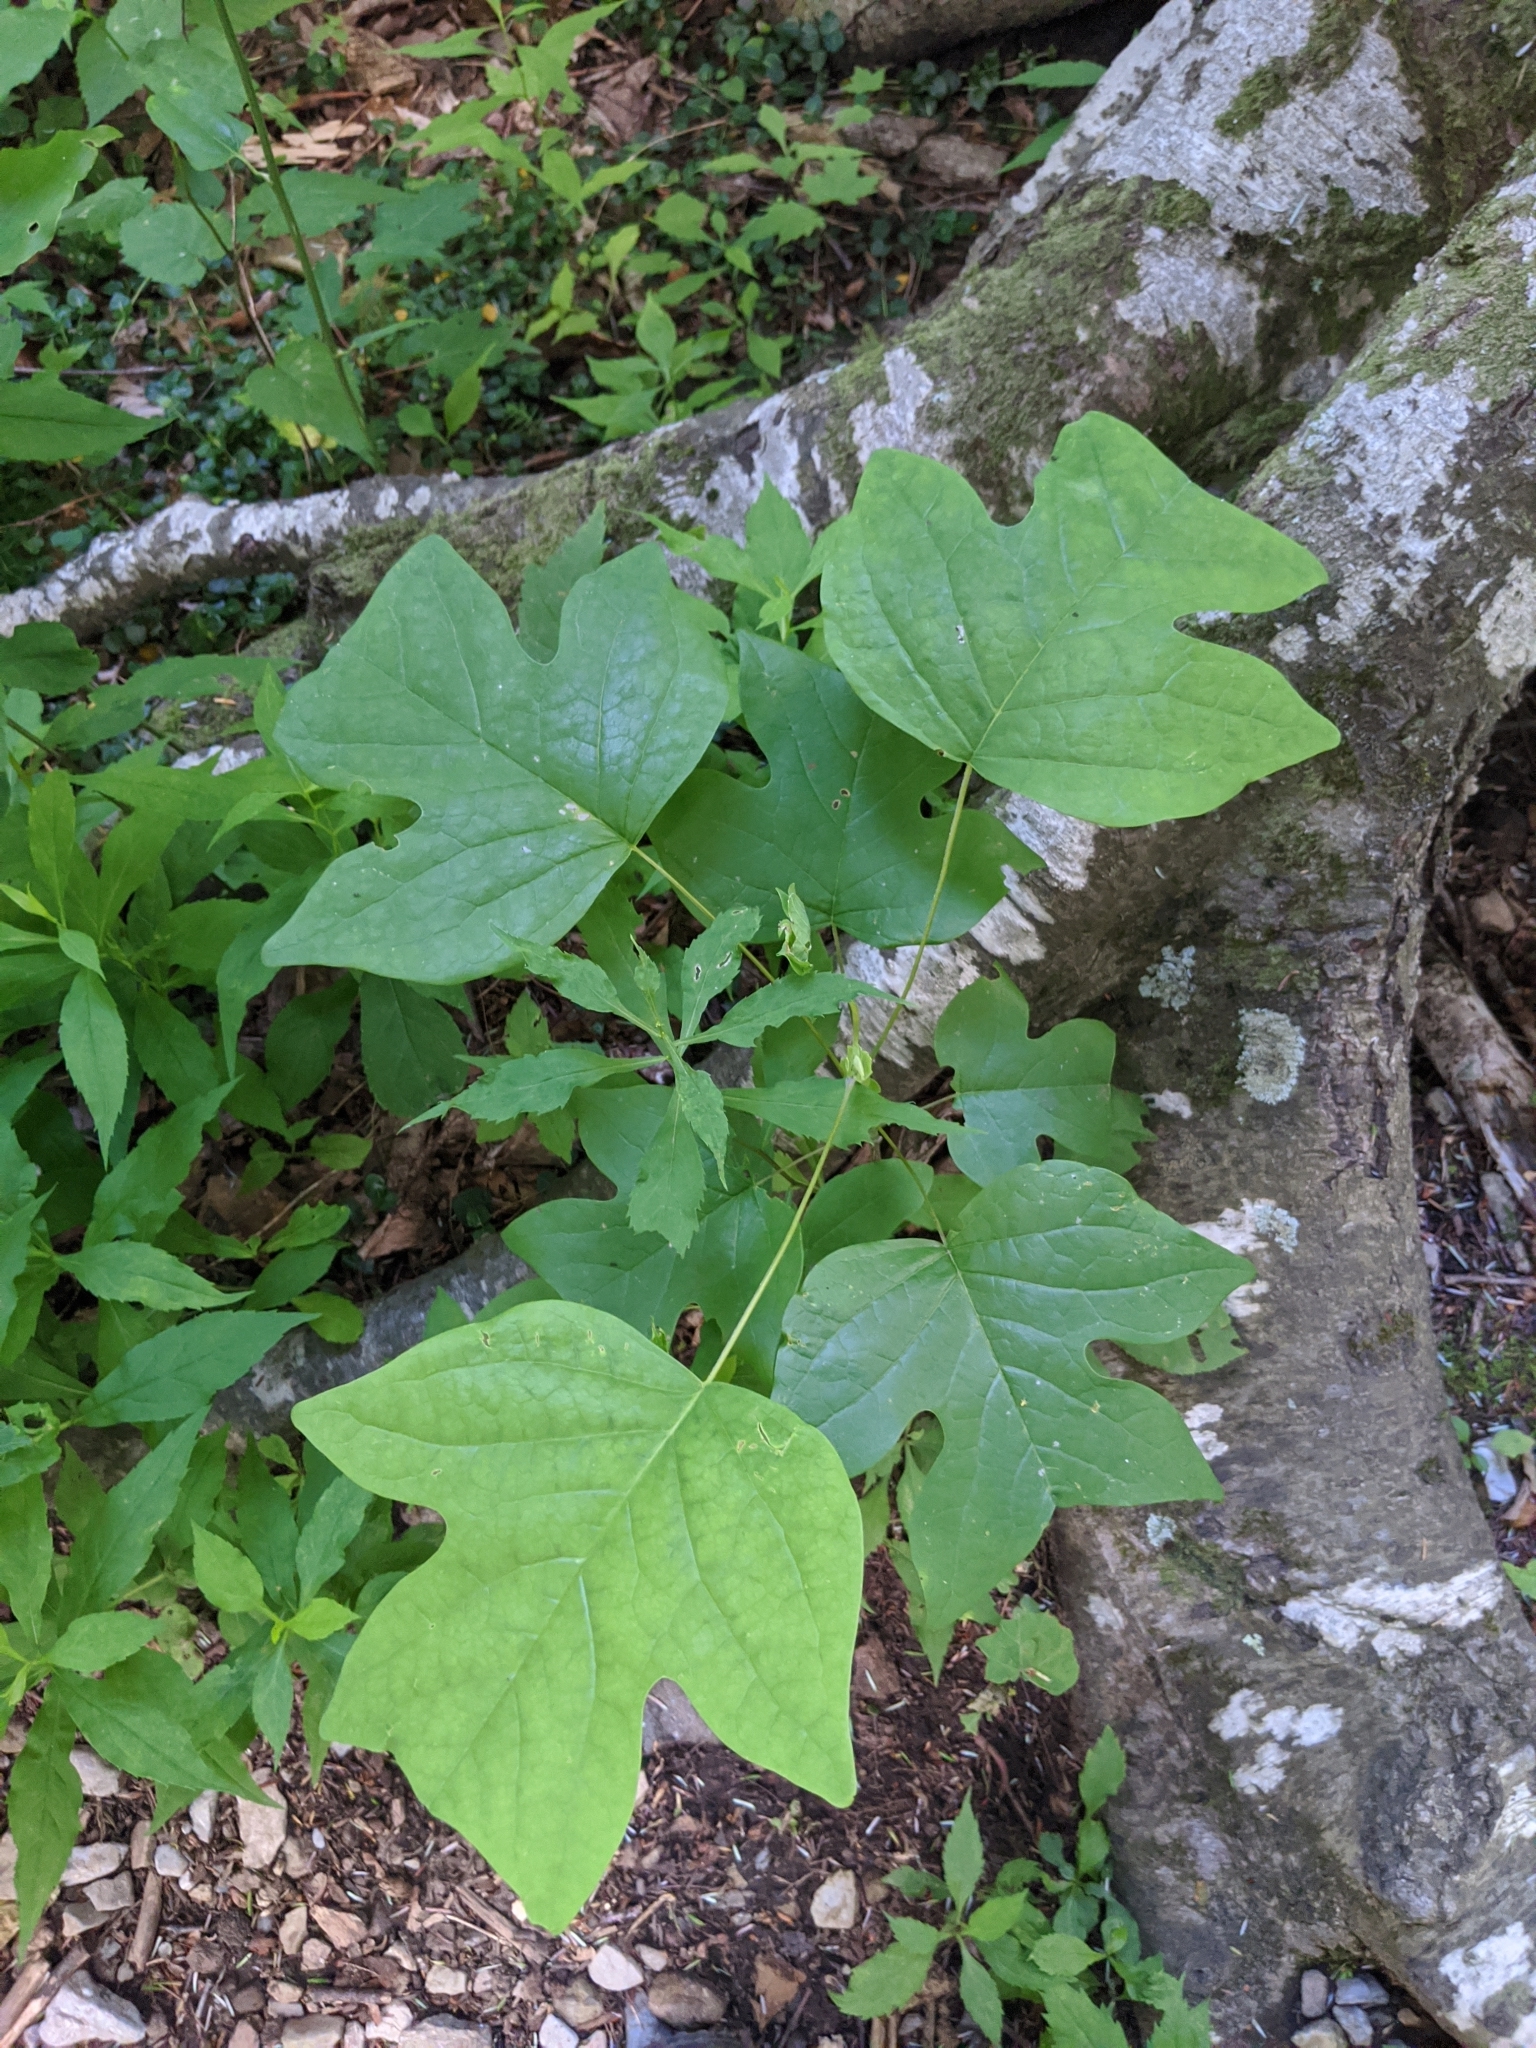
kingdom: Plantae
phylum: Tracheophyta
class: Magnoliopsida
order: Magnoliales
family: Magnoliaceae
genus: Liriodendron
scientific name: Liriodendron tulipifera
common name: Tulip tree
